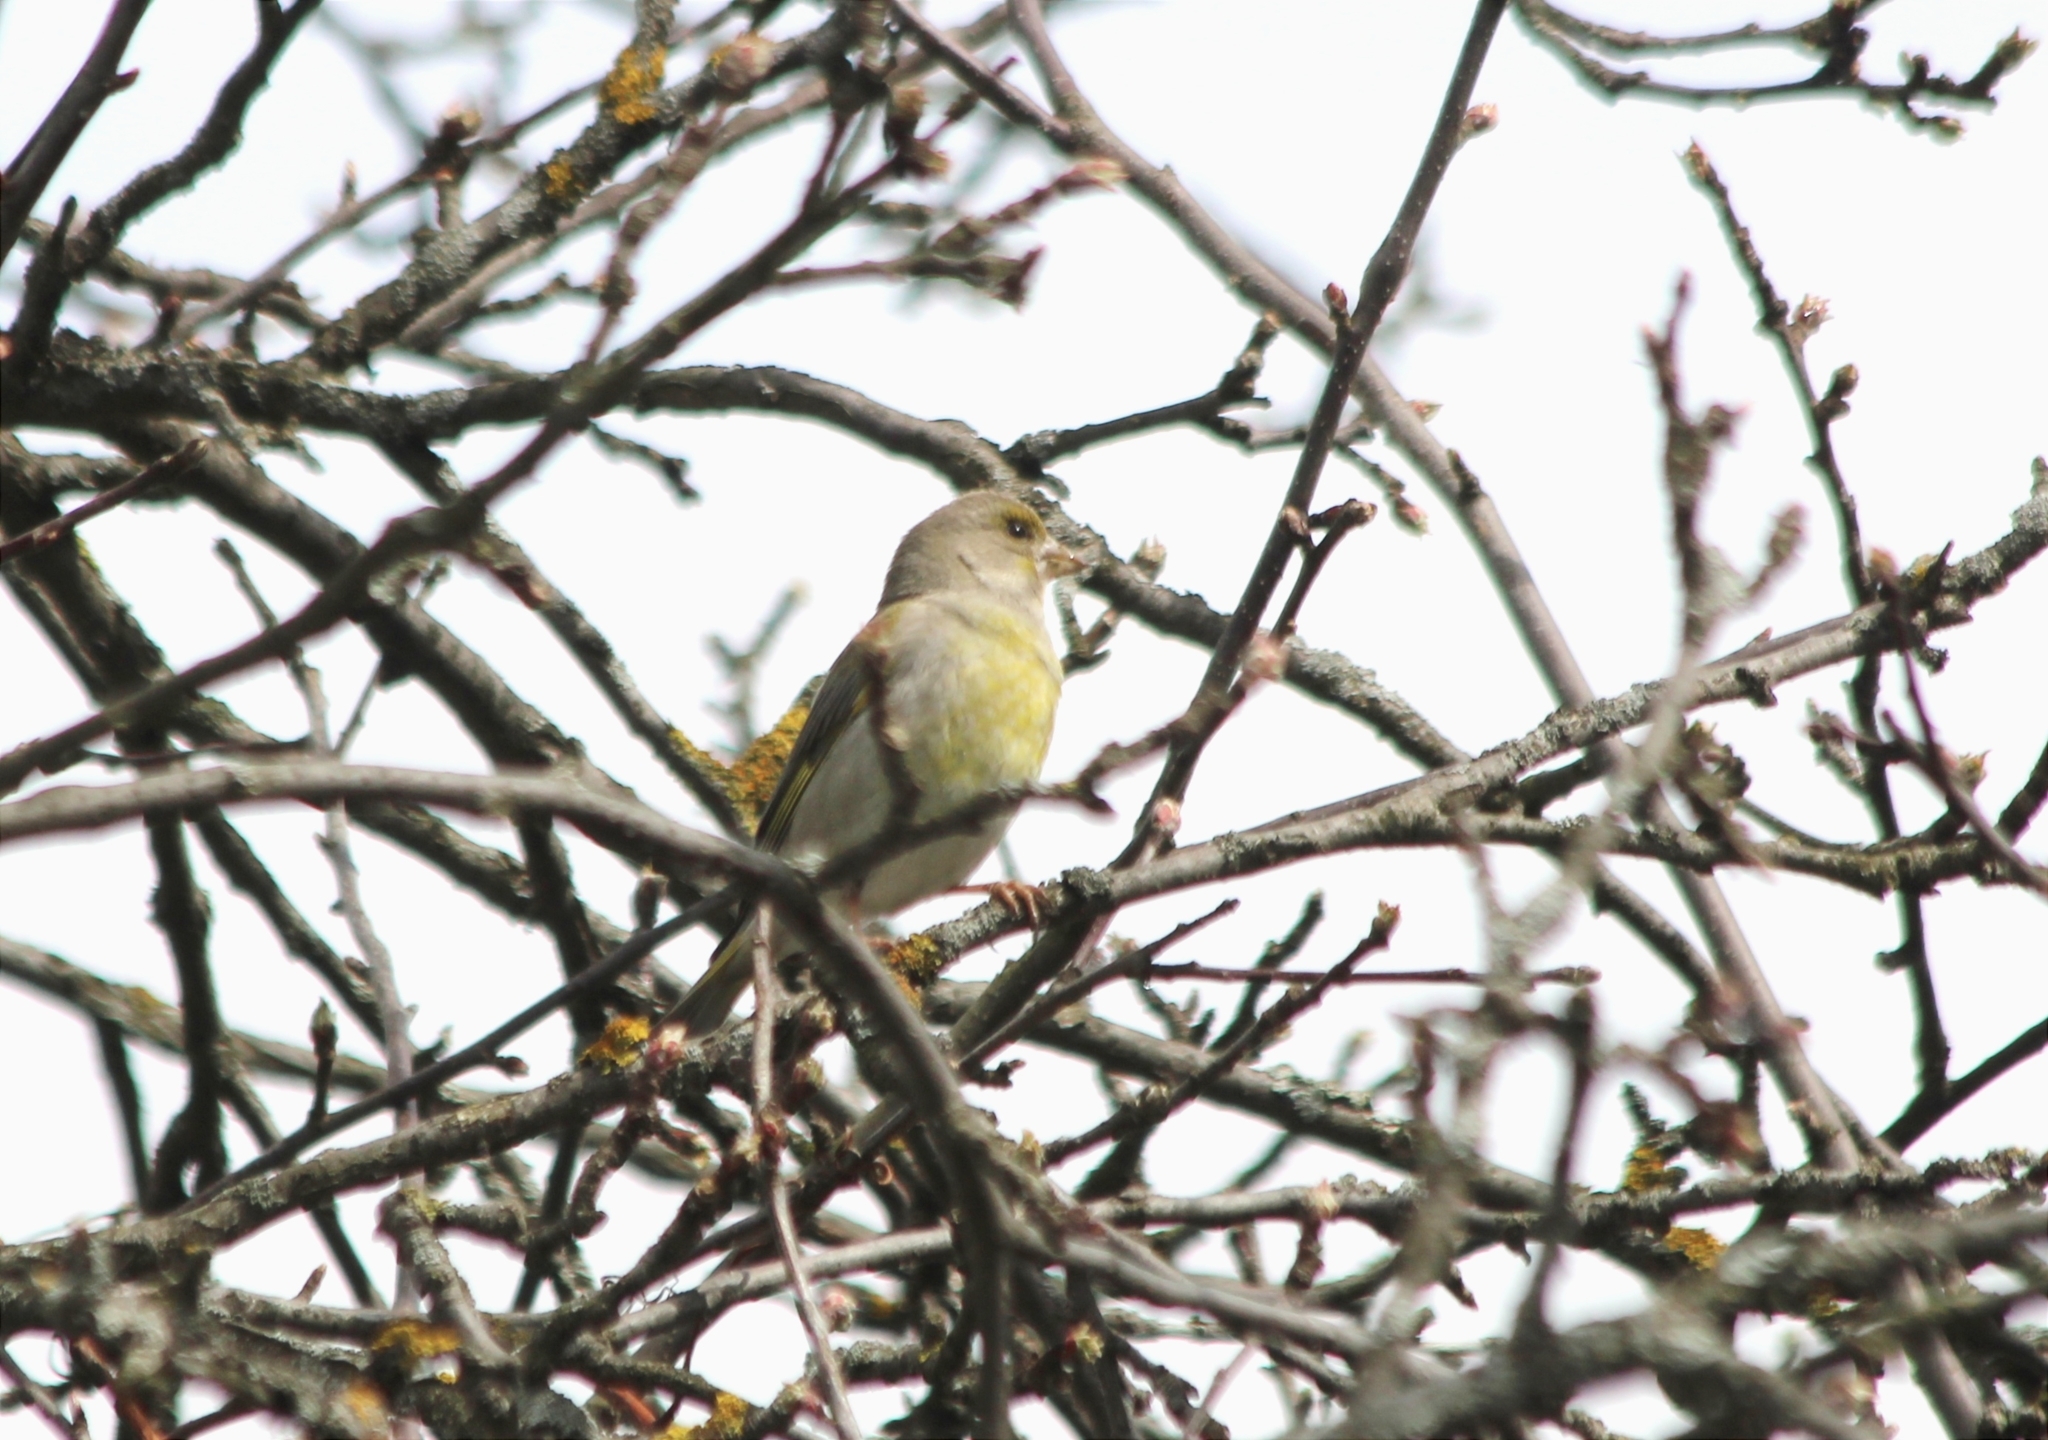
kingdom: Plantae
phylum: Tracheophyta
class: Liliopsida
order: Poales
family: Poaceae
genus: Chloris
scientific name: Chloris chloris
